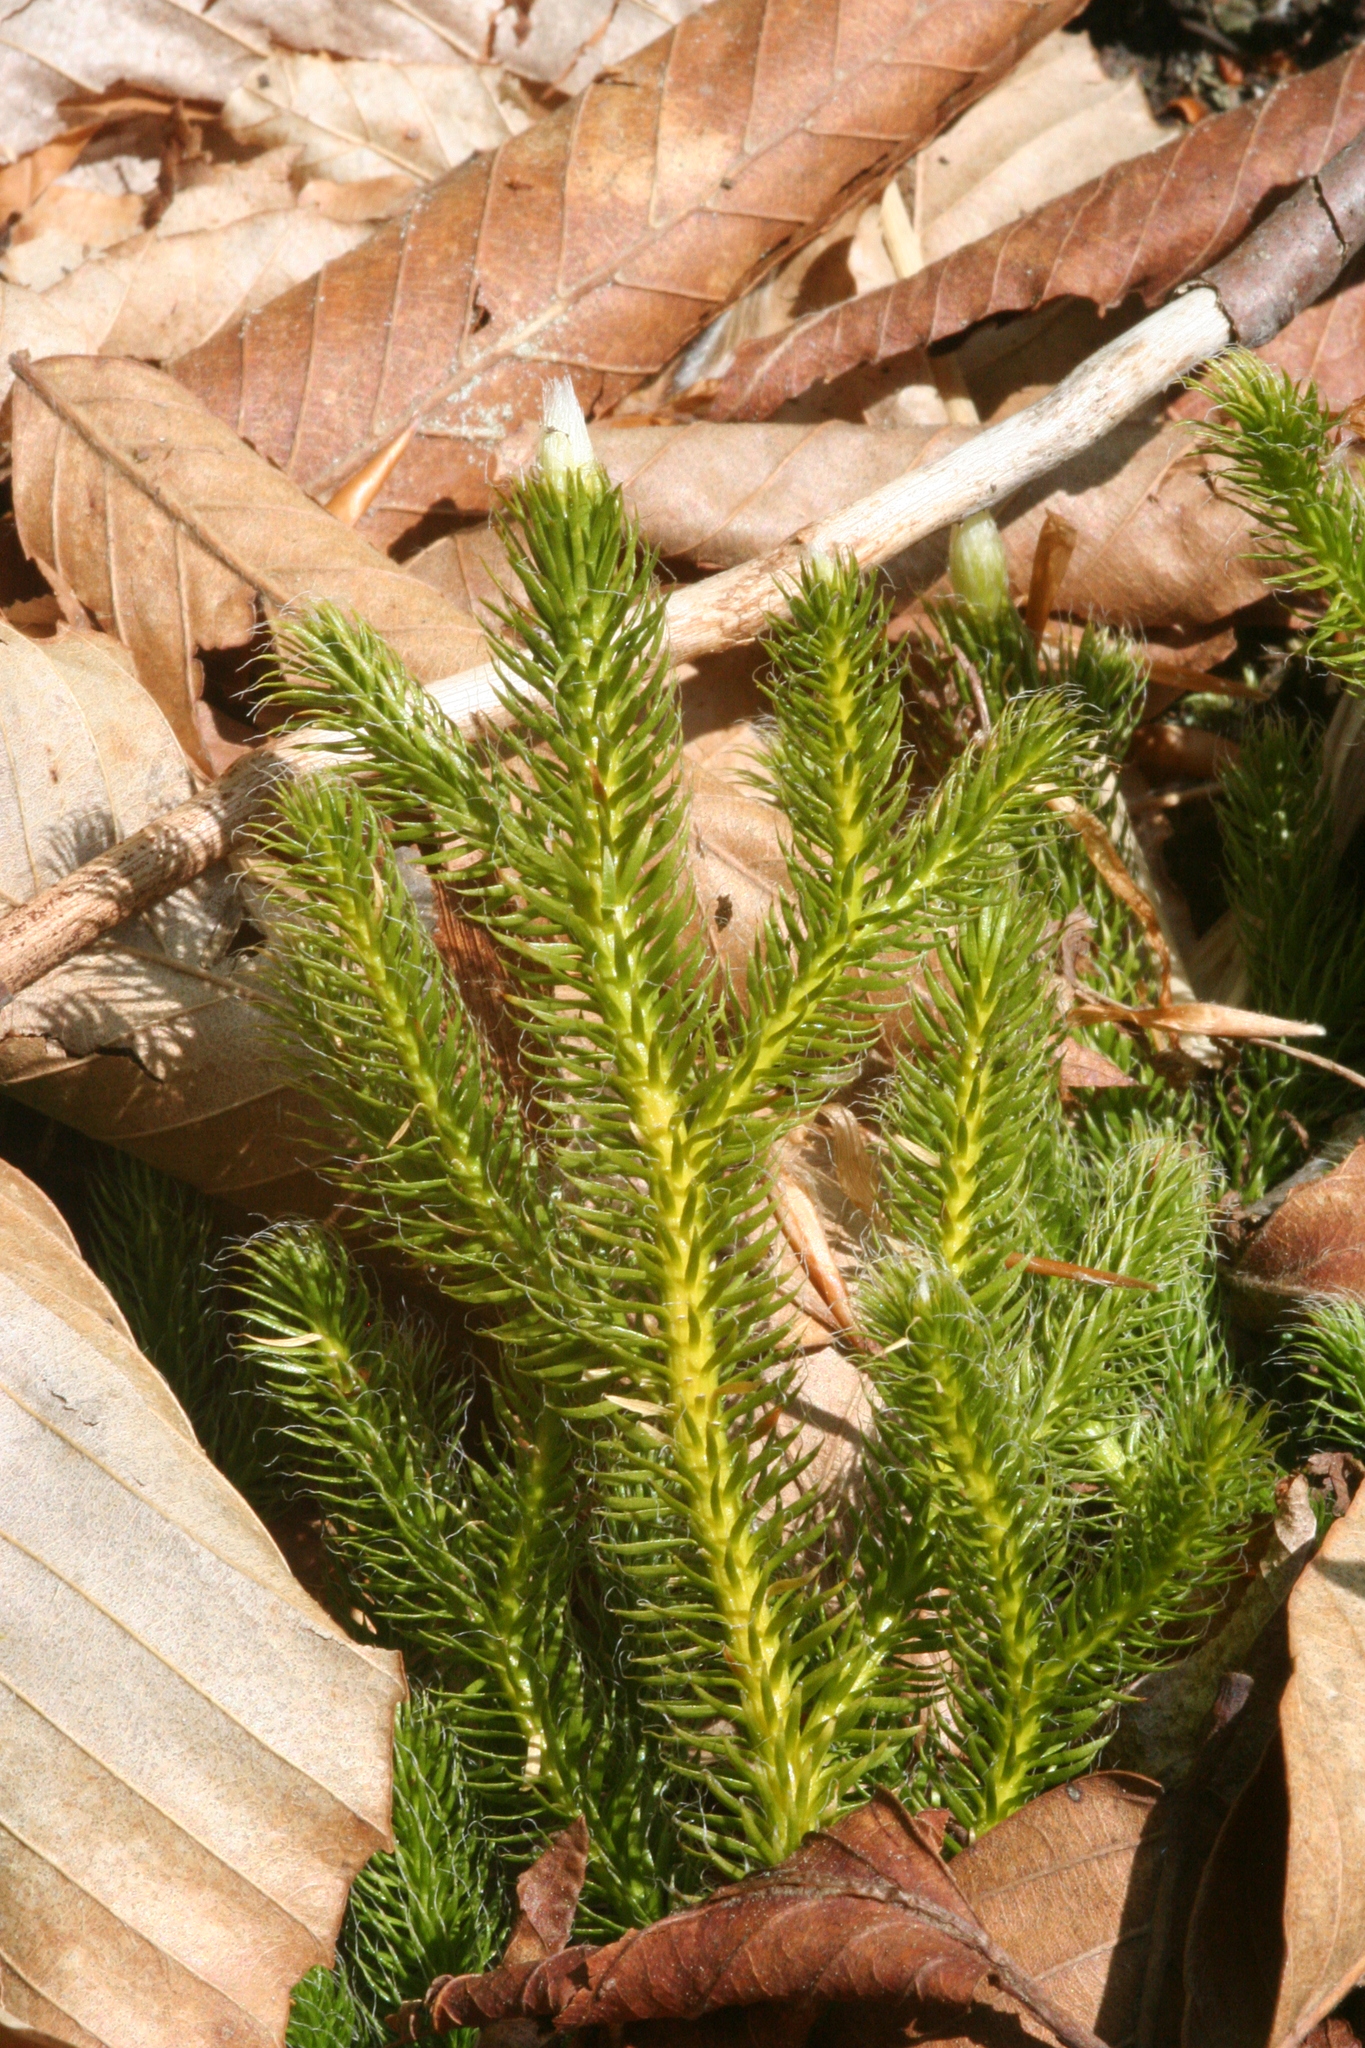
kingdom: Plantae
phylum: Tracheophyta
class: Lycopodiopsida
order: Lycopodiales
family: Lycopodiaceae
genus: Lycopodium
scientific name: Lycopodium clavatum
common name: Stag's-horn clubmoss
